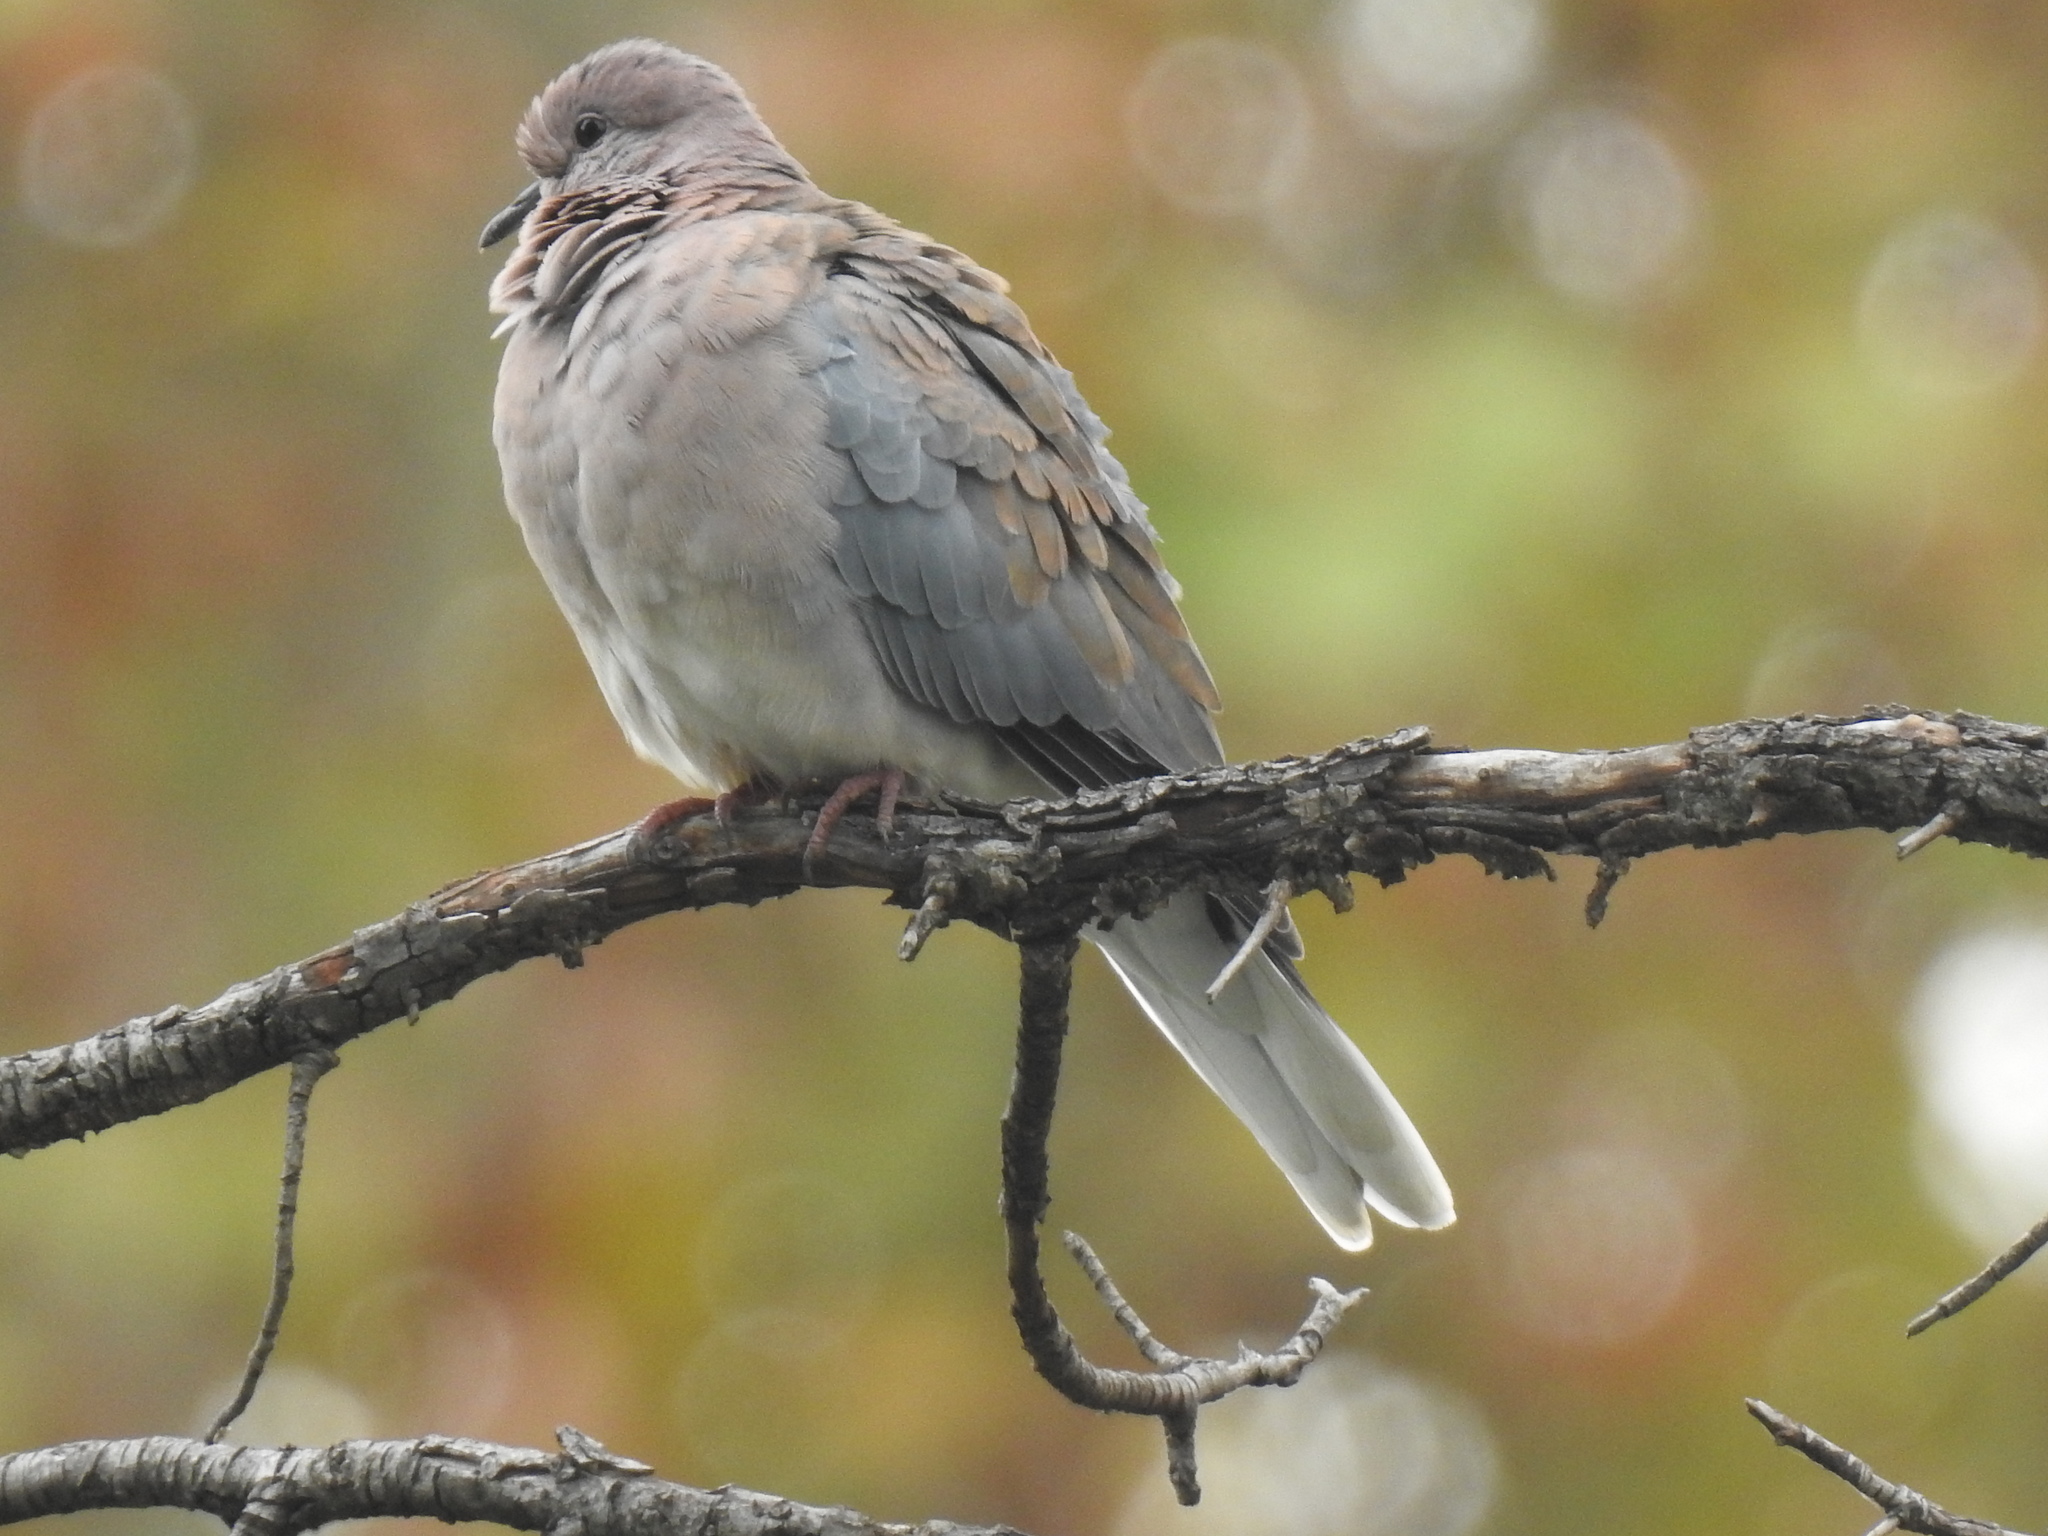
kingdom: Animalia
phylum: Chordata
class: Aves
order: Columbiformes
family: Columbidae
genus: Spilopelia
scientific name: Spilopelia senegalensis
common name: Laughing dove
